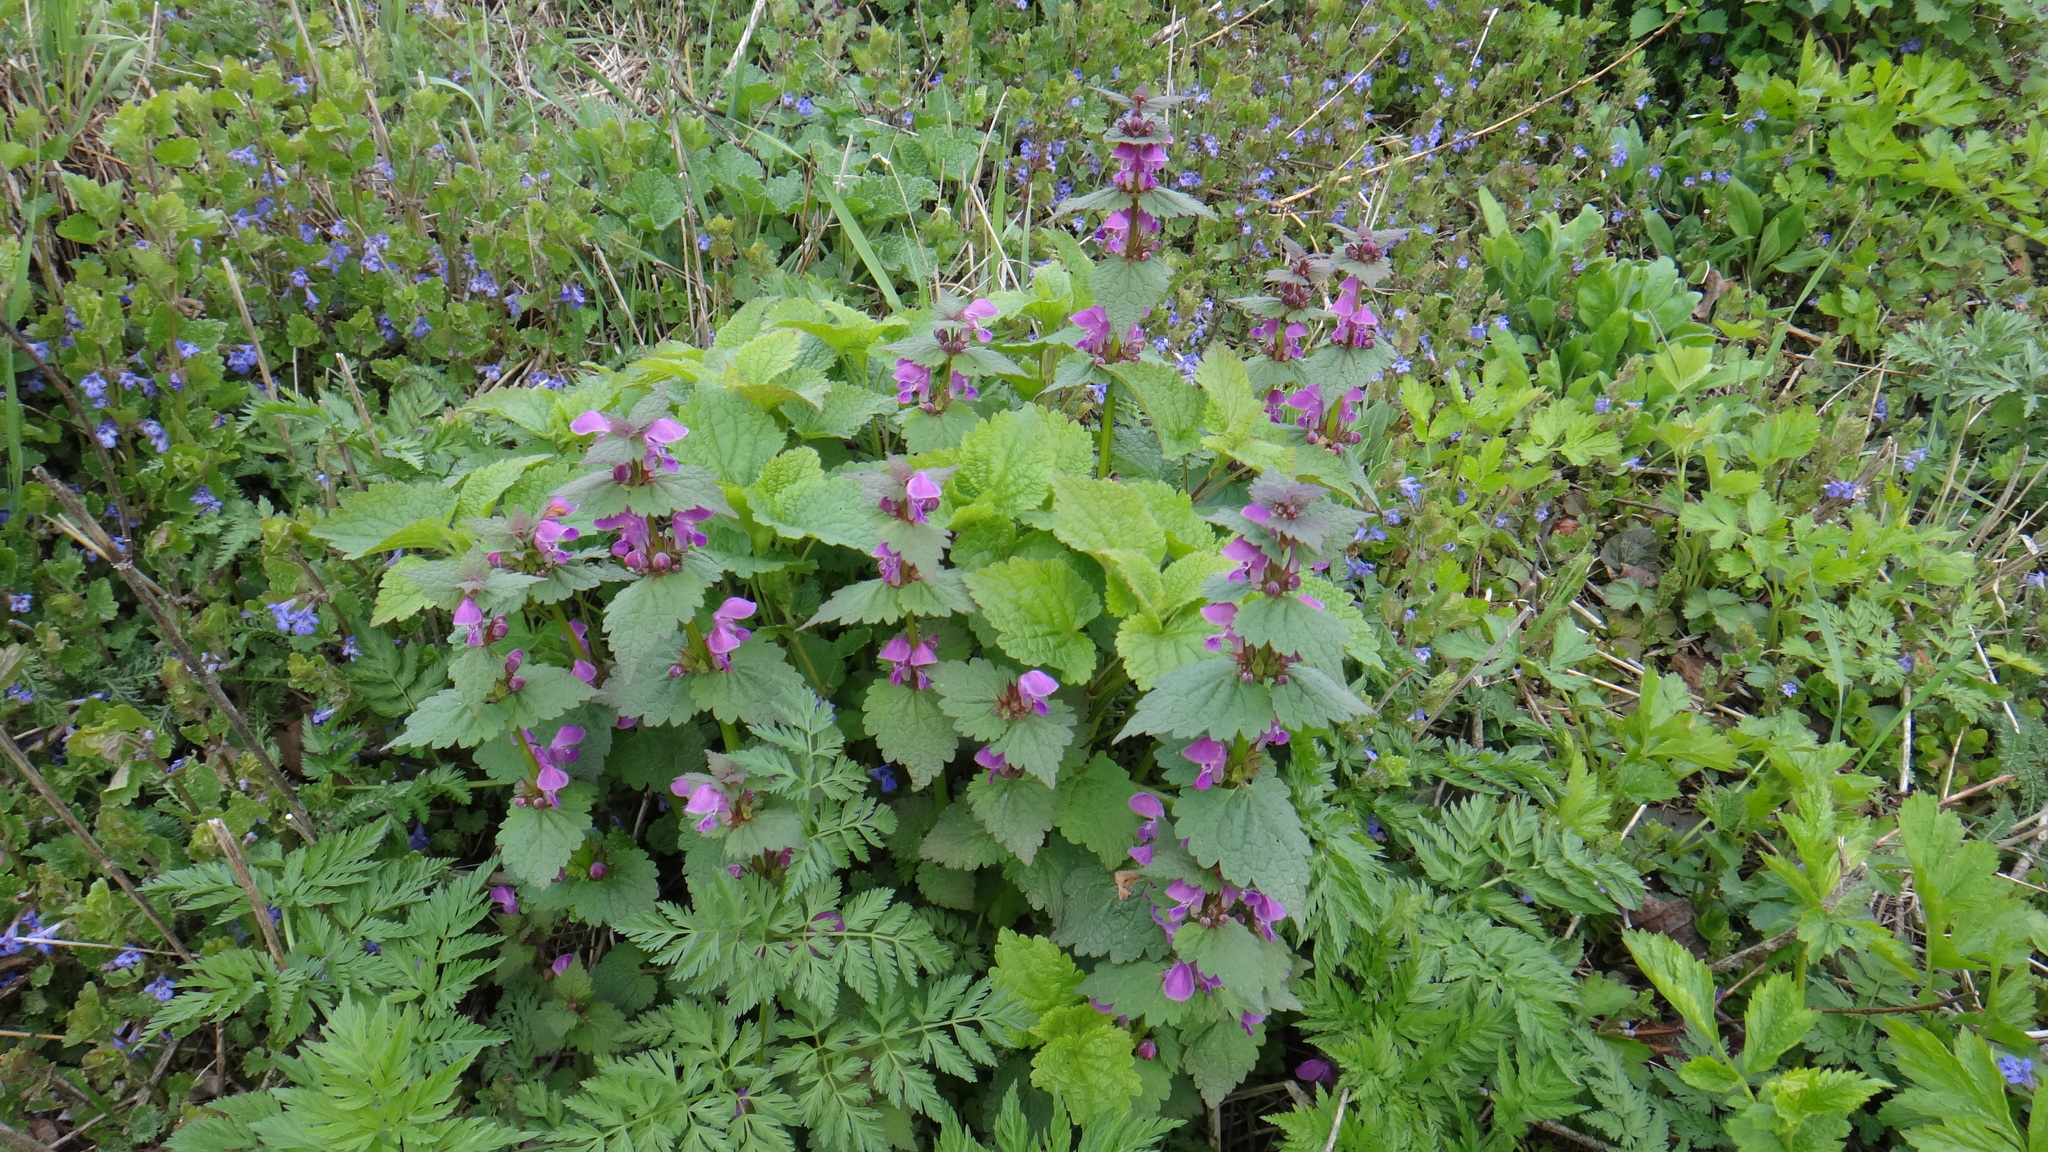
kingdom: Plantae
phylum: Tracheophyta
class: Magnoliopsida
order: Lamiales
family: Lamiaceae
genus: Lamium
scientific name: Lamium maculatum
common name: Spotted dead-nettle
